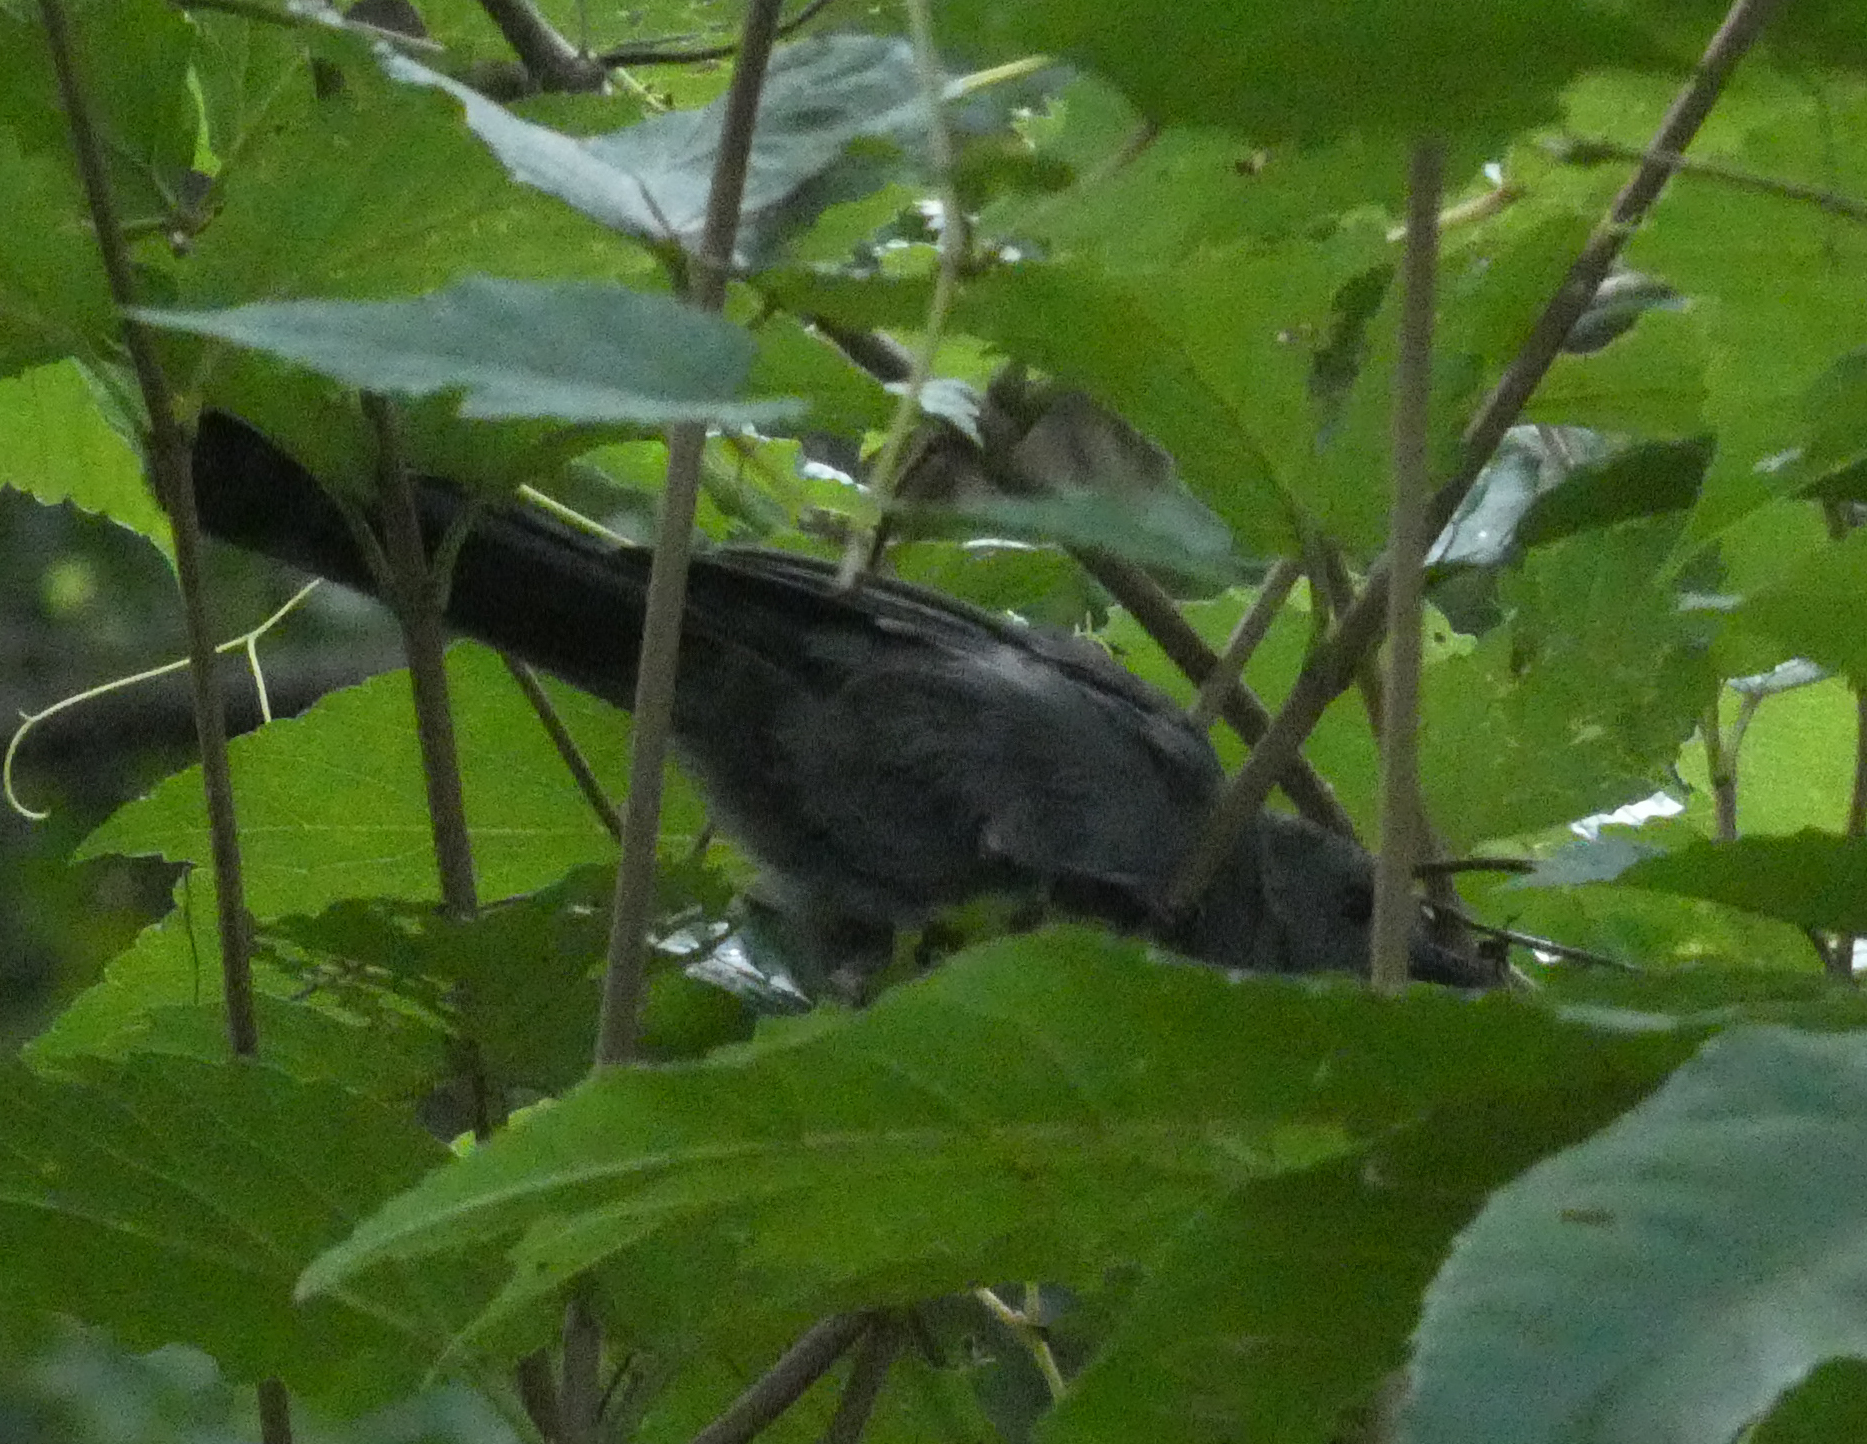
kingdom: Animalia
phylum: Chordata
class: Aves
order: Passeriformes
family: Mimidae
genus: Dumetella
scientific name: Dumetella carolinensis
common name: Gray catbird
